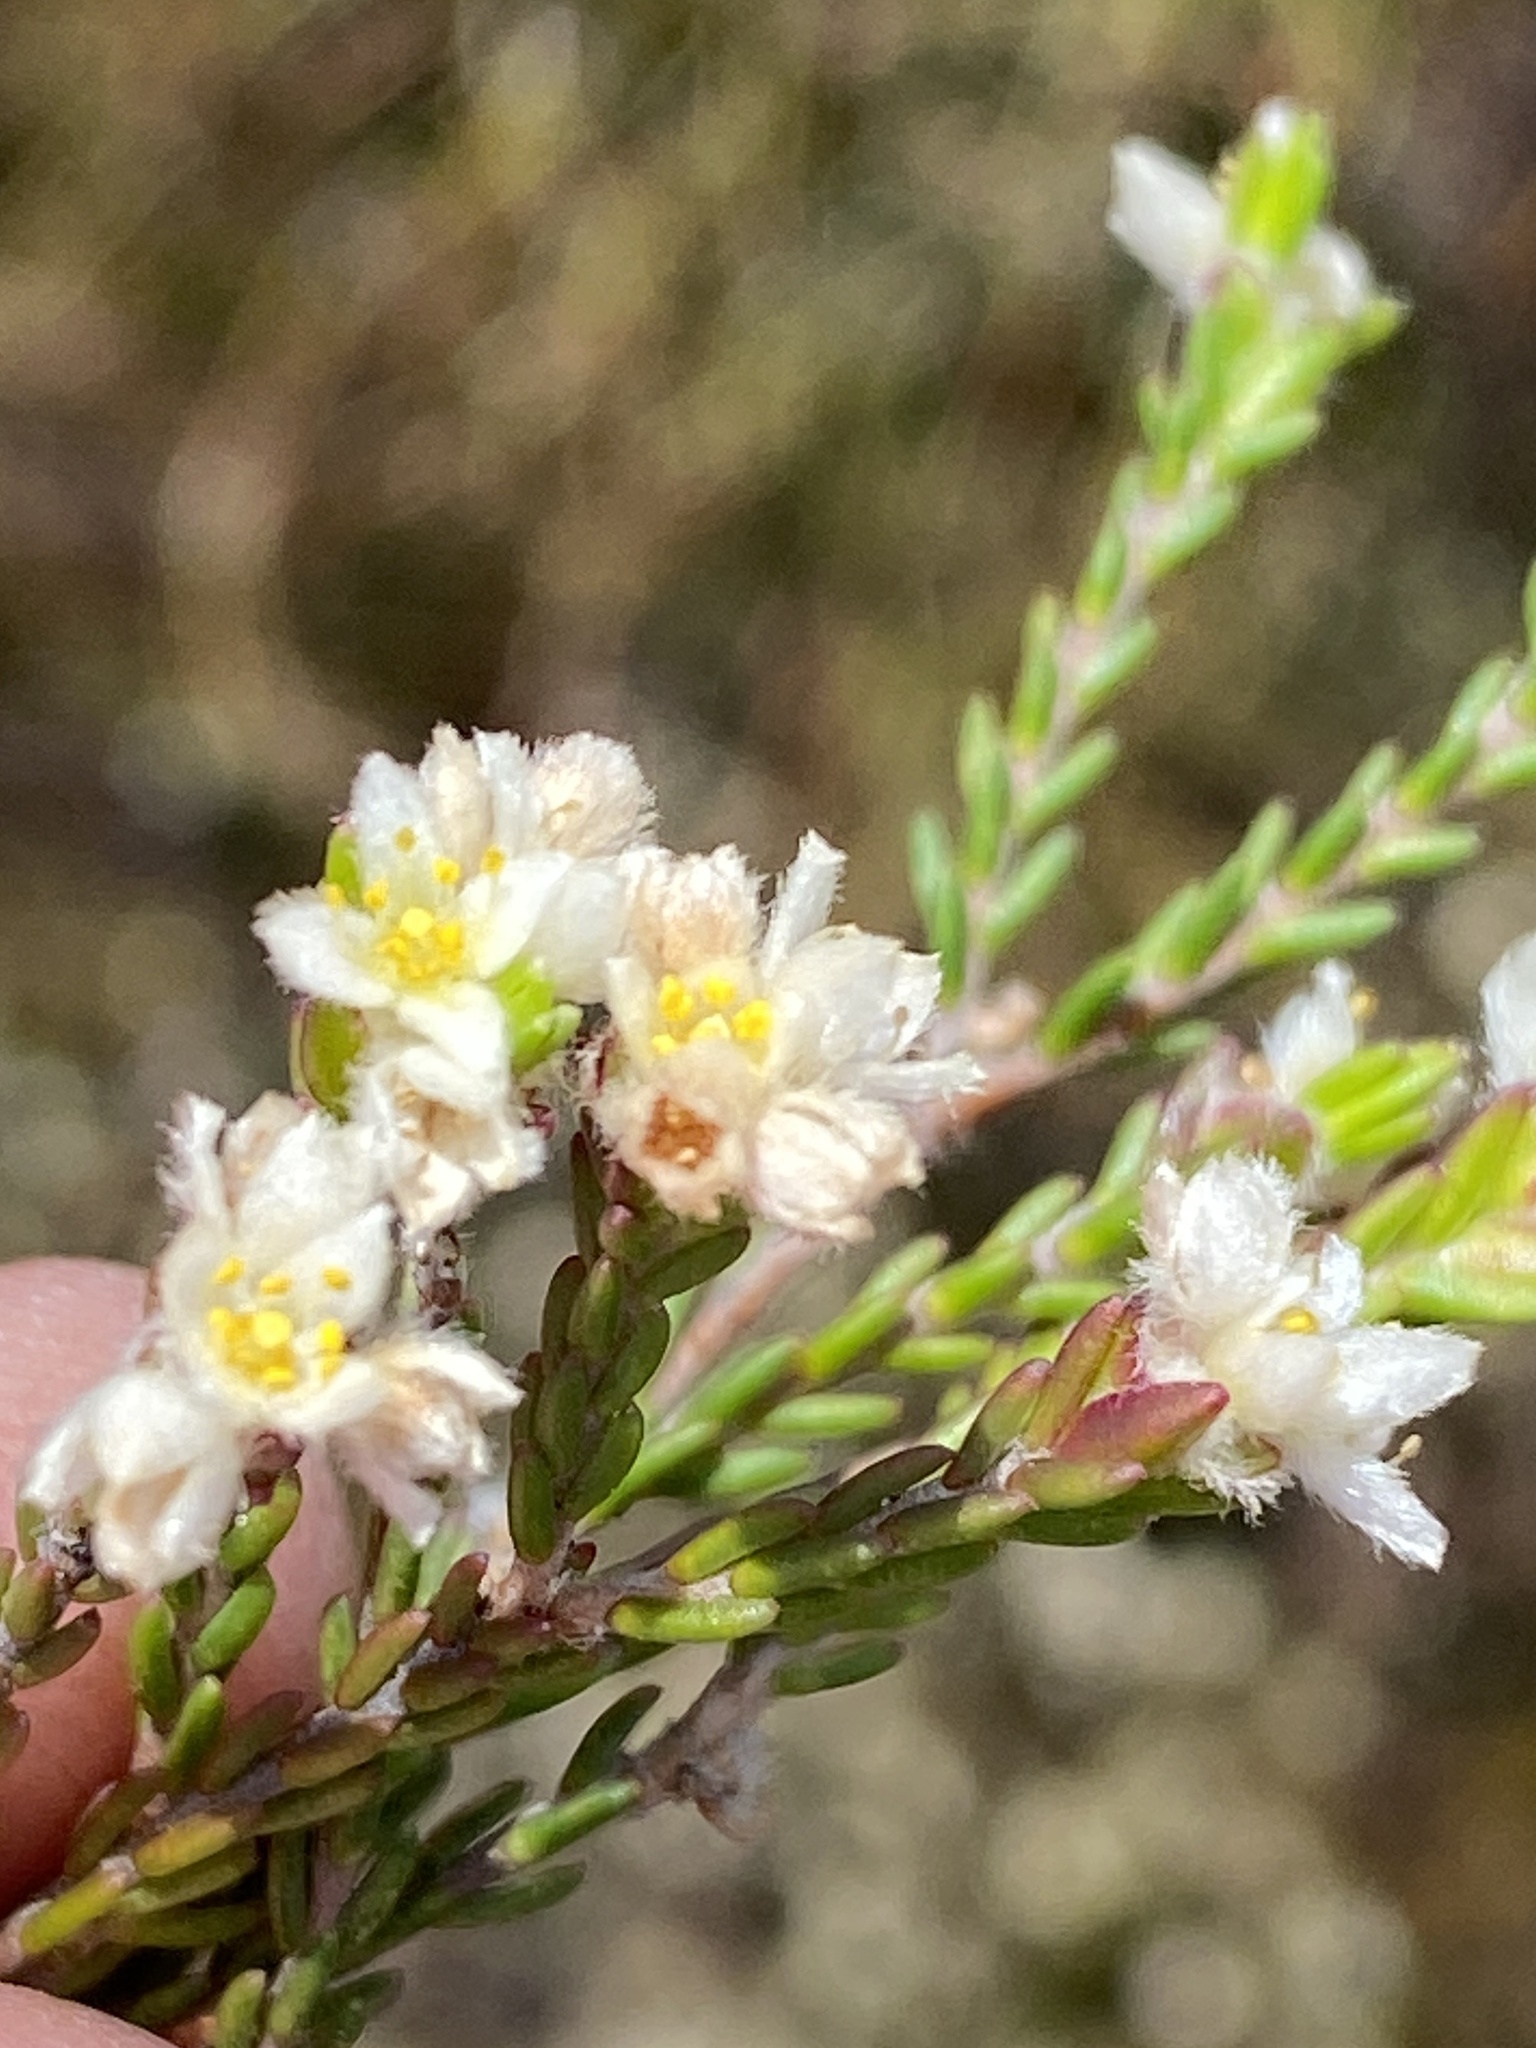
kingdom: Plantae
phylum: Tracheophyta
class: Magnoliopsida
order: Malvales
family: Thymelaeaceae
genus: Lachnaea
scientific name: Lachnaea laniflora
